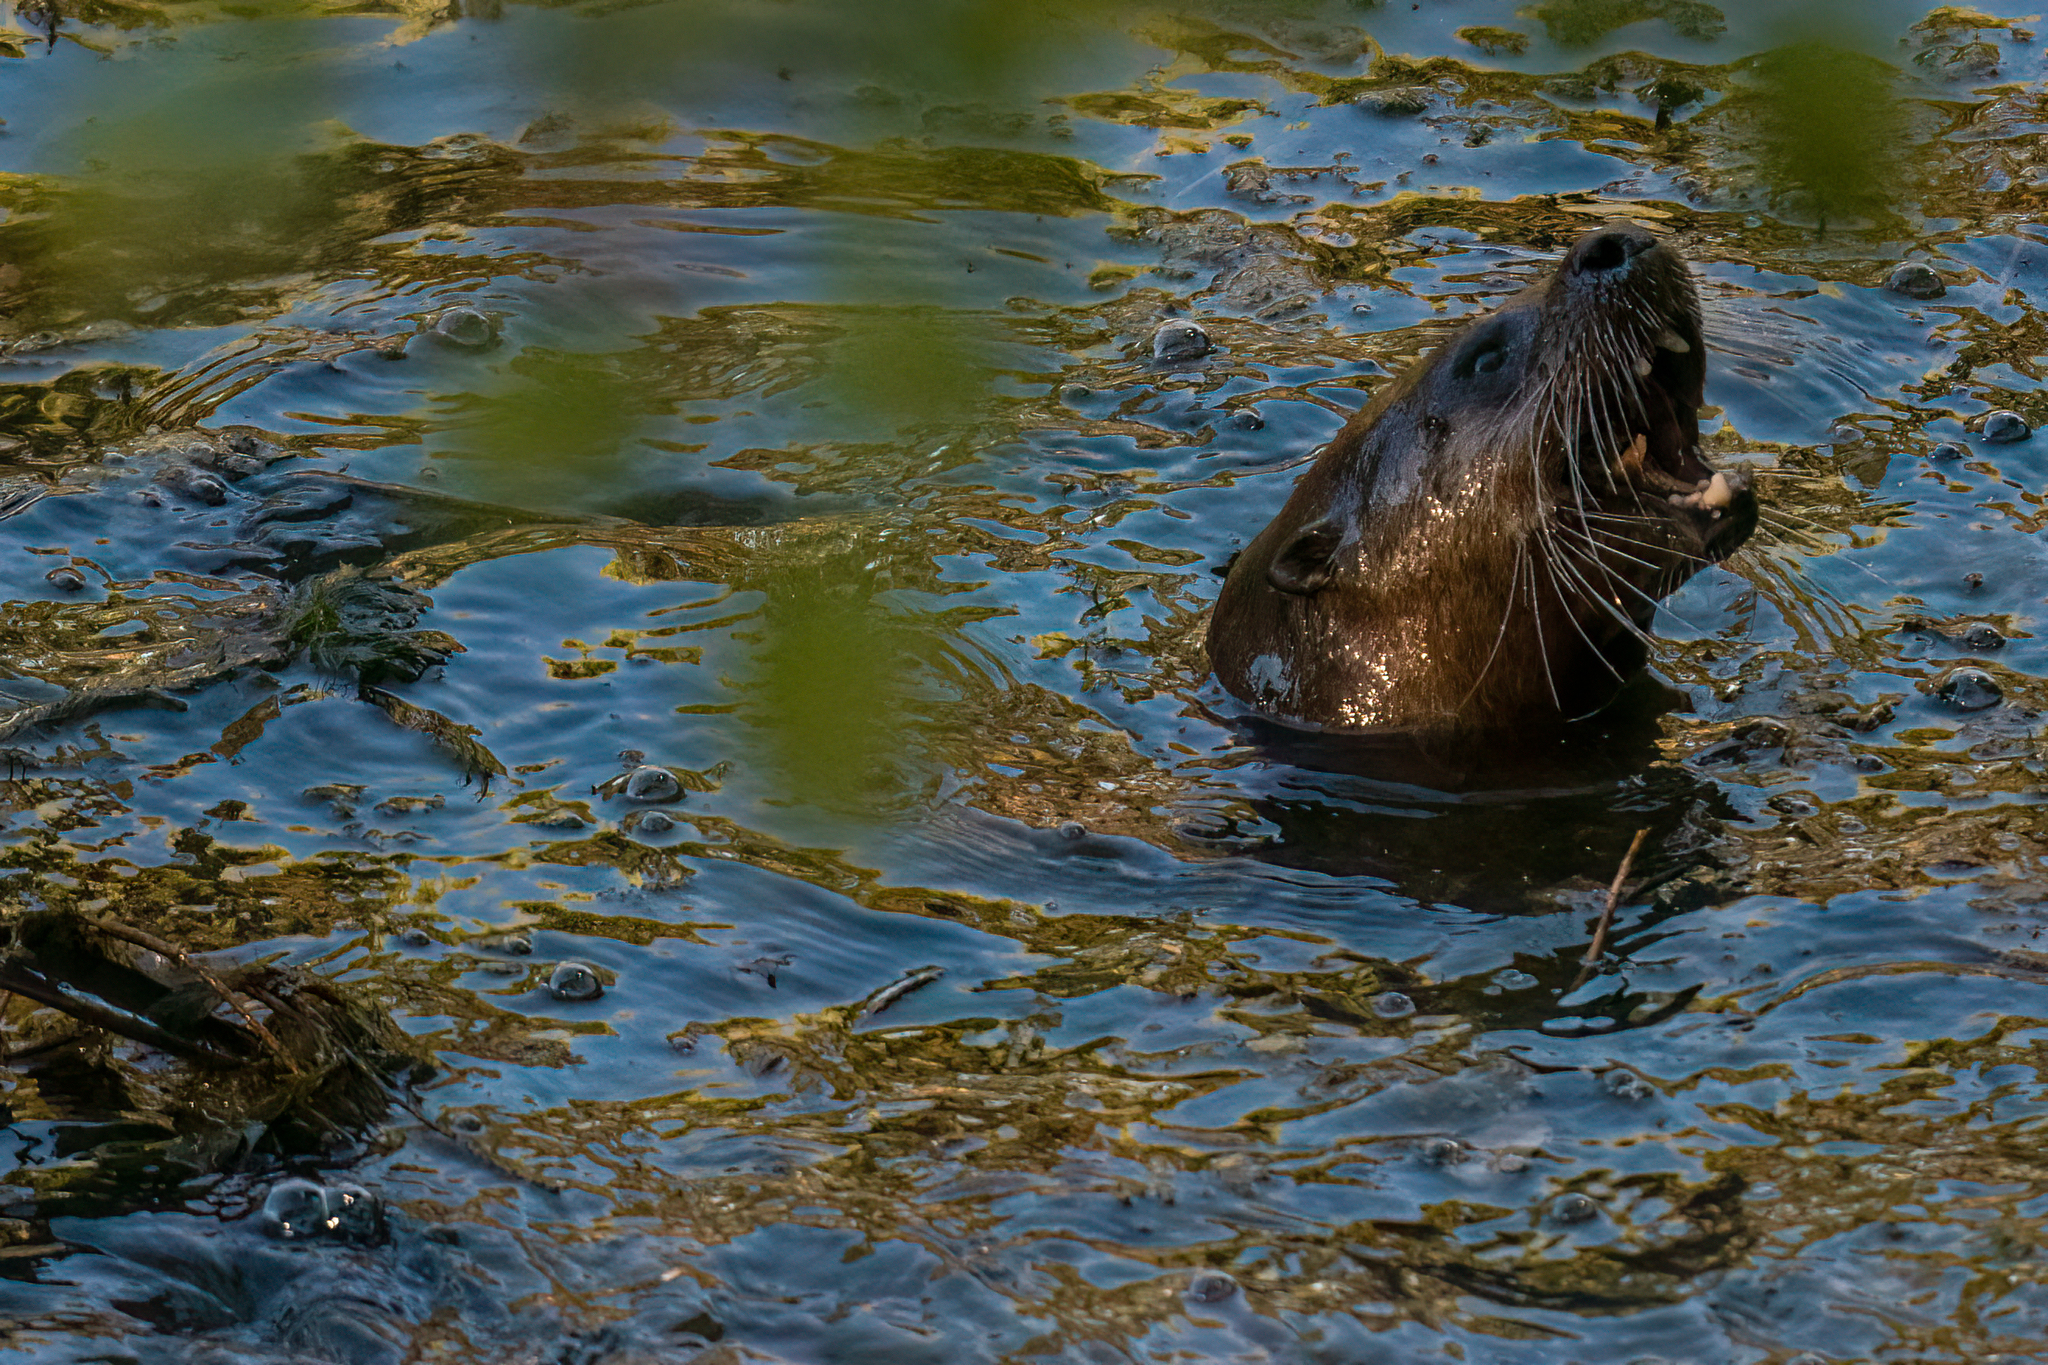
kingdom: Animalia
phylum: Chordata
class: Mammalia
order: Carnivora
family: Mustelidae
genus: Lontra
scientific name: Lontra canadensis
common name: North american river otter
